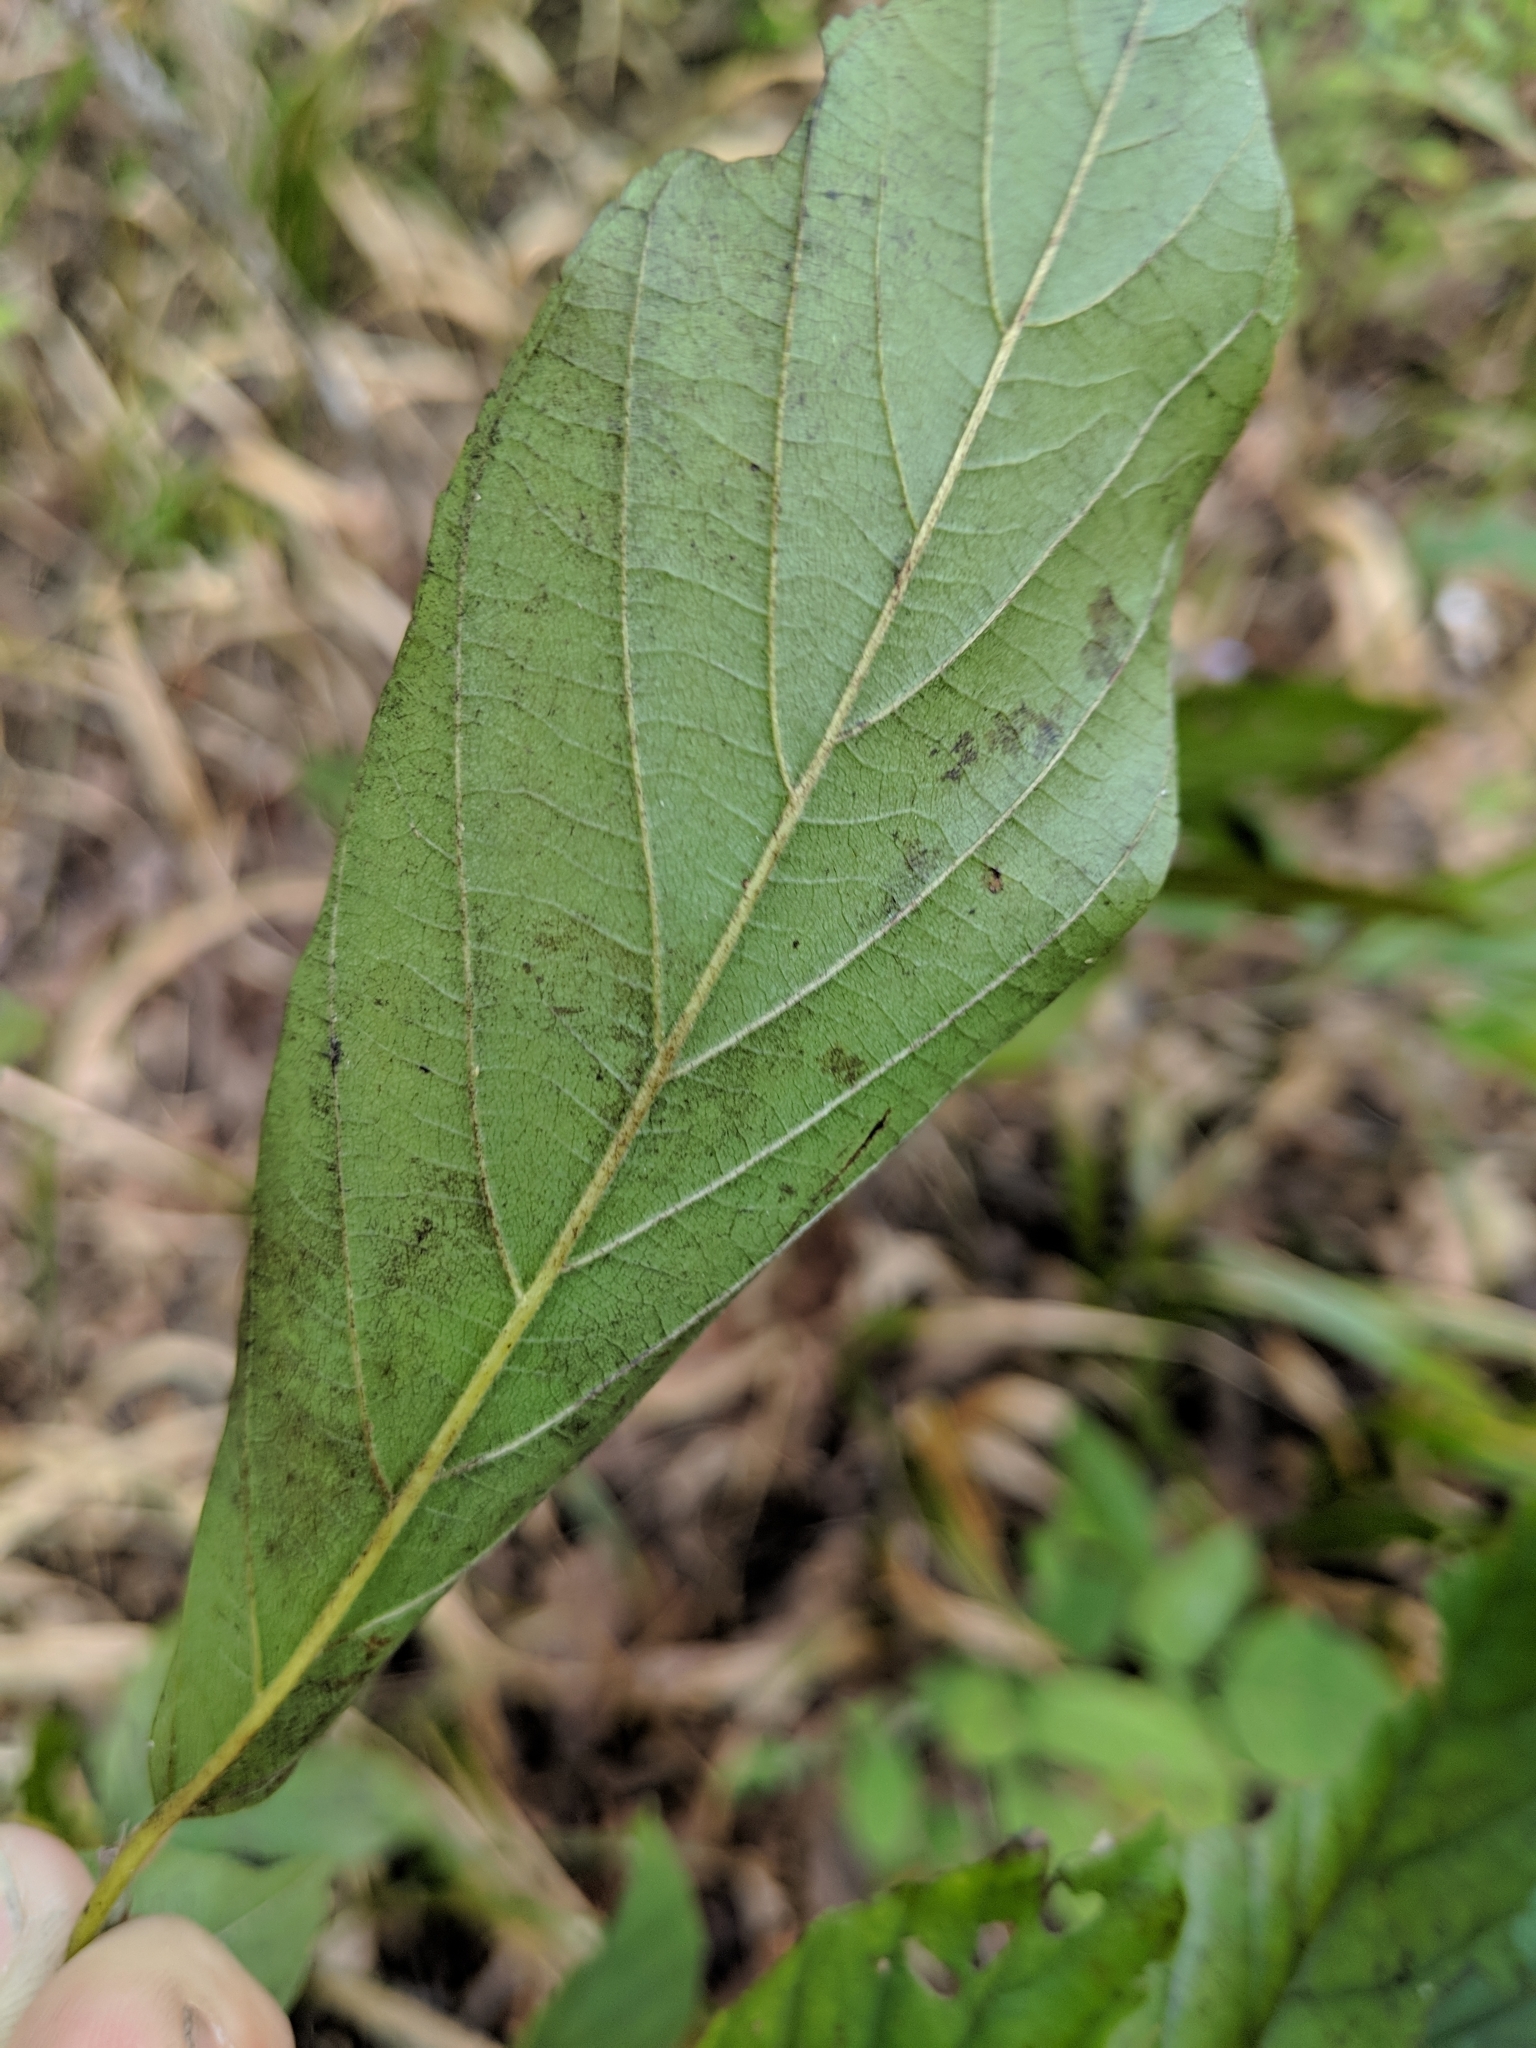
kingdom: Plantae
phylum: Tracheophyta
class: Magnoliopsida
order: Rosales
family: Rhamnaceae
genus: Frangula
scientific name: Frangula caroliniana
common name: Carolina buckthorn
